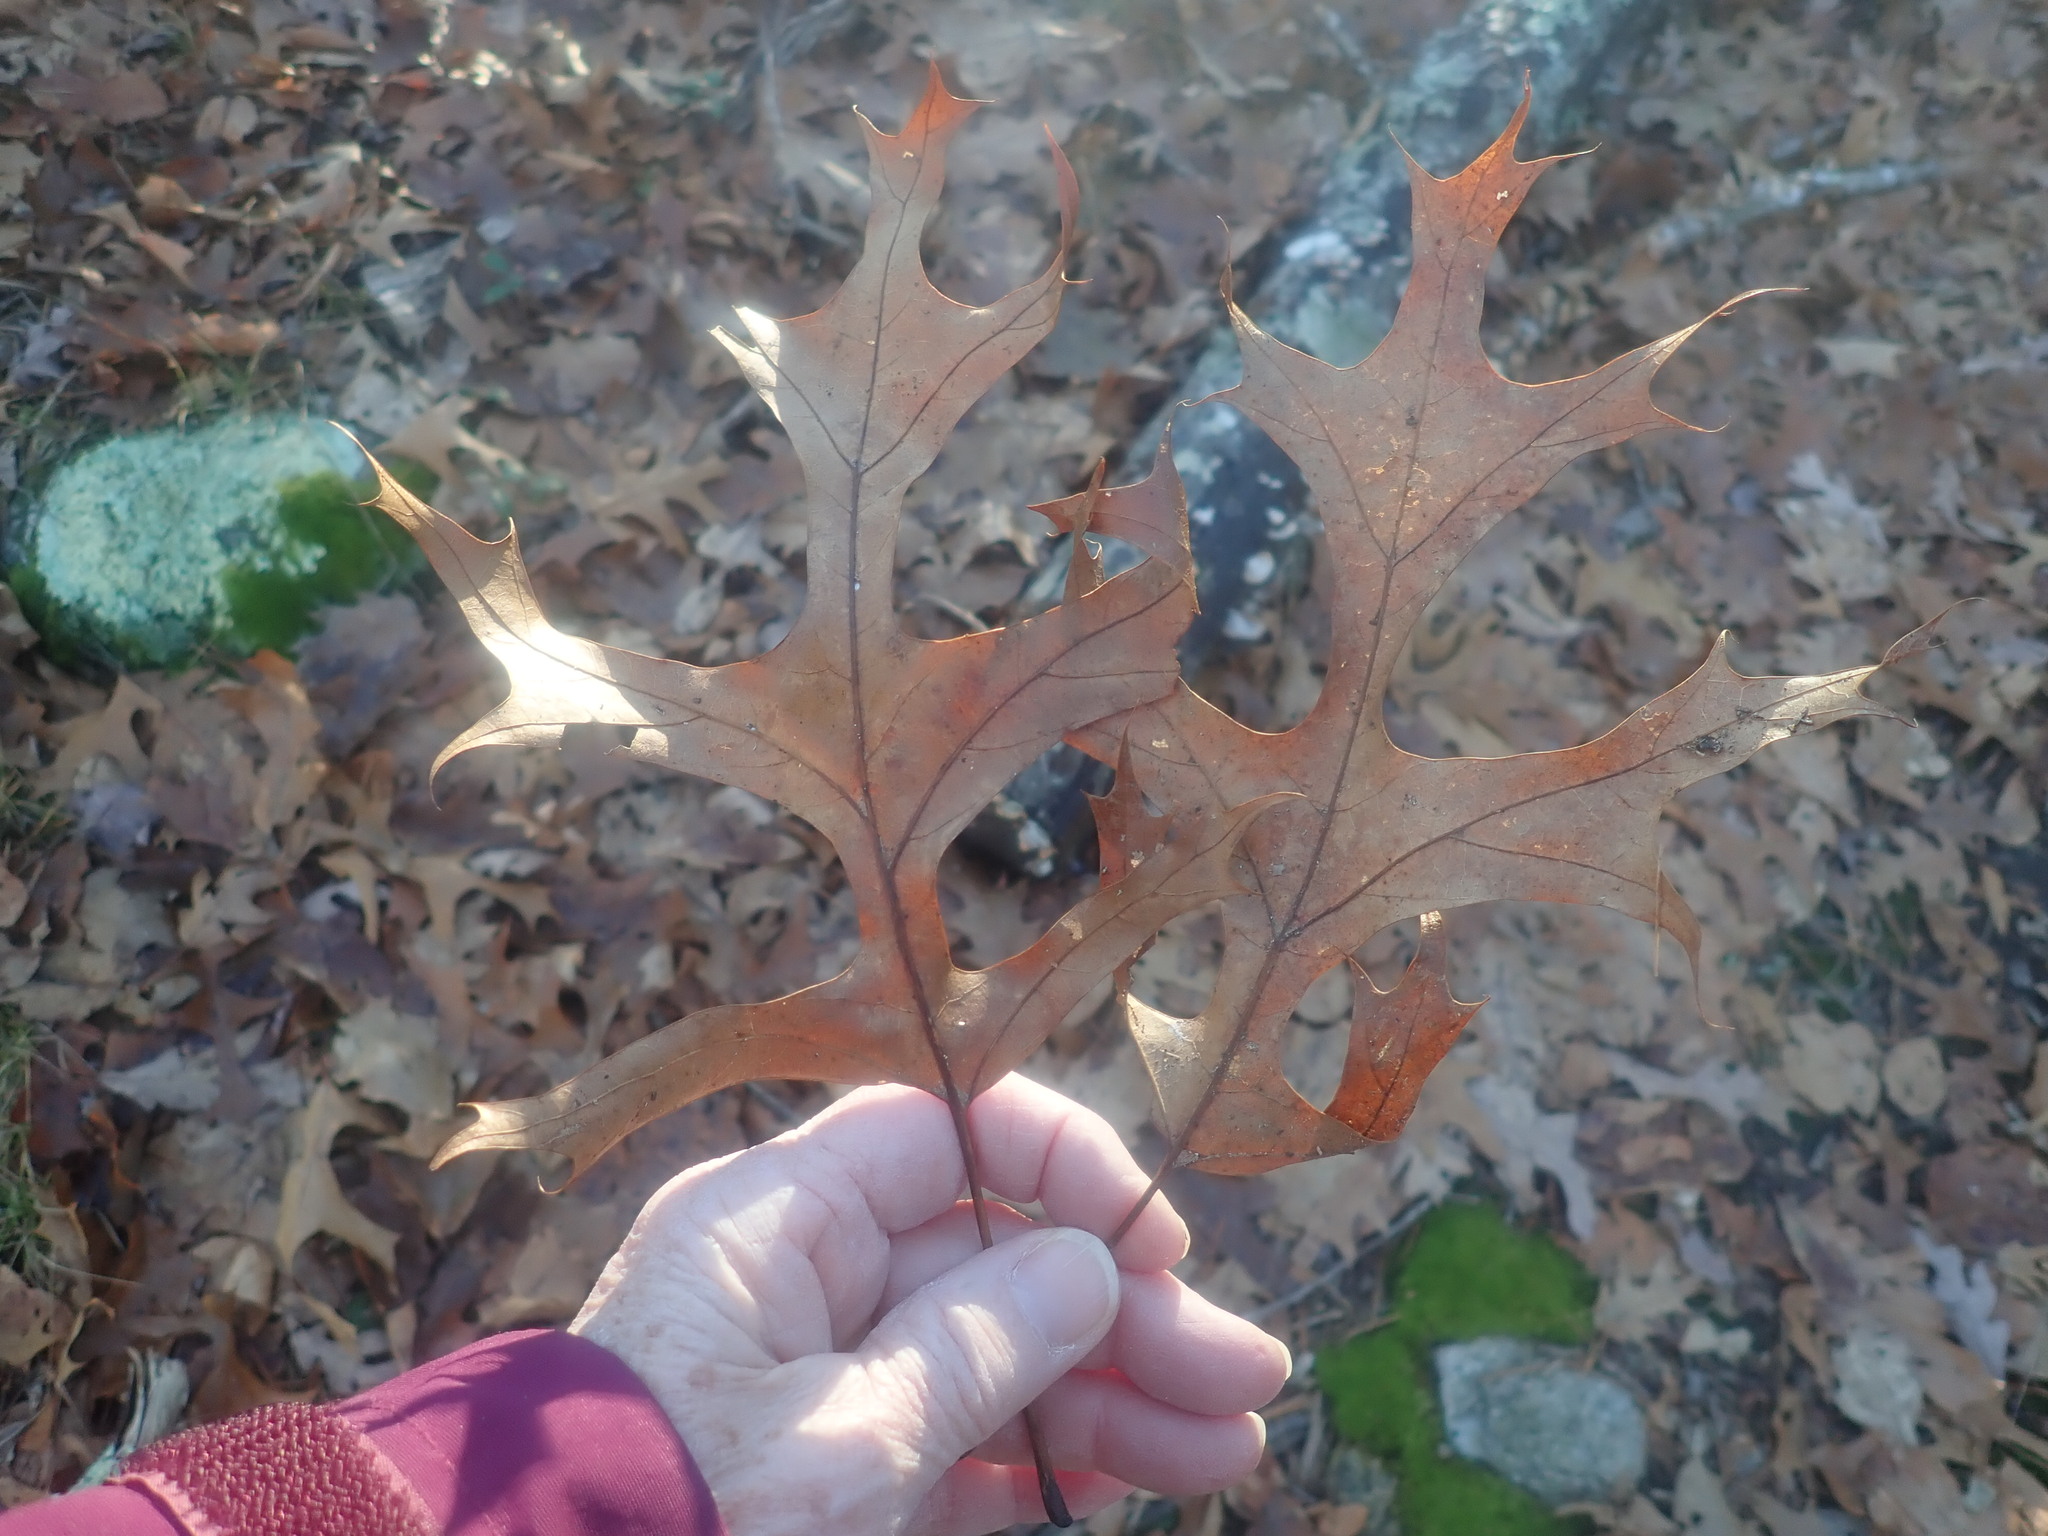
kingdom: Plantae
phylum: Tracheophyta
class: Magnoliopsida
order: Fagales
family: Fagaceae
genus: Quercus
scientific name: Quercus coccinea
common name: Scarlet oak
